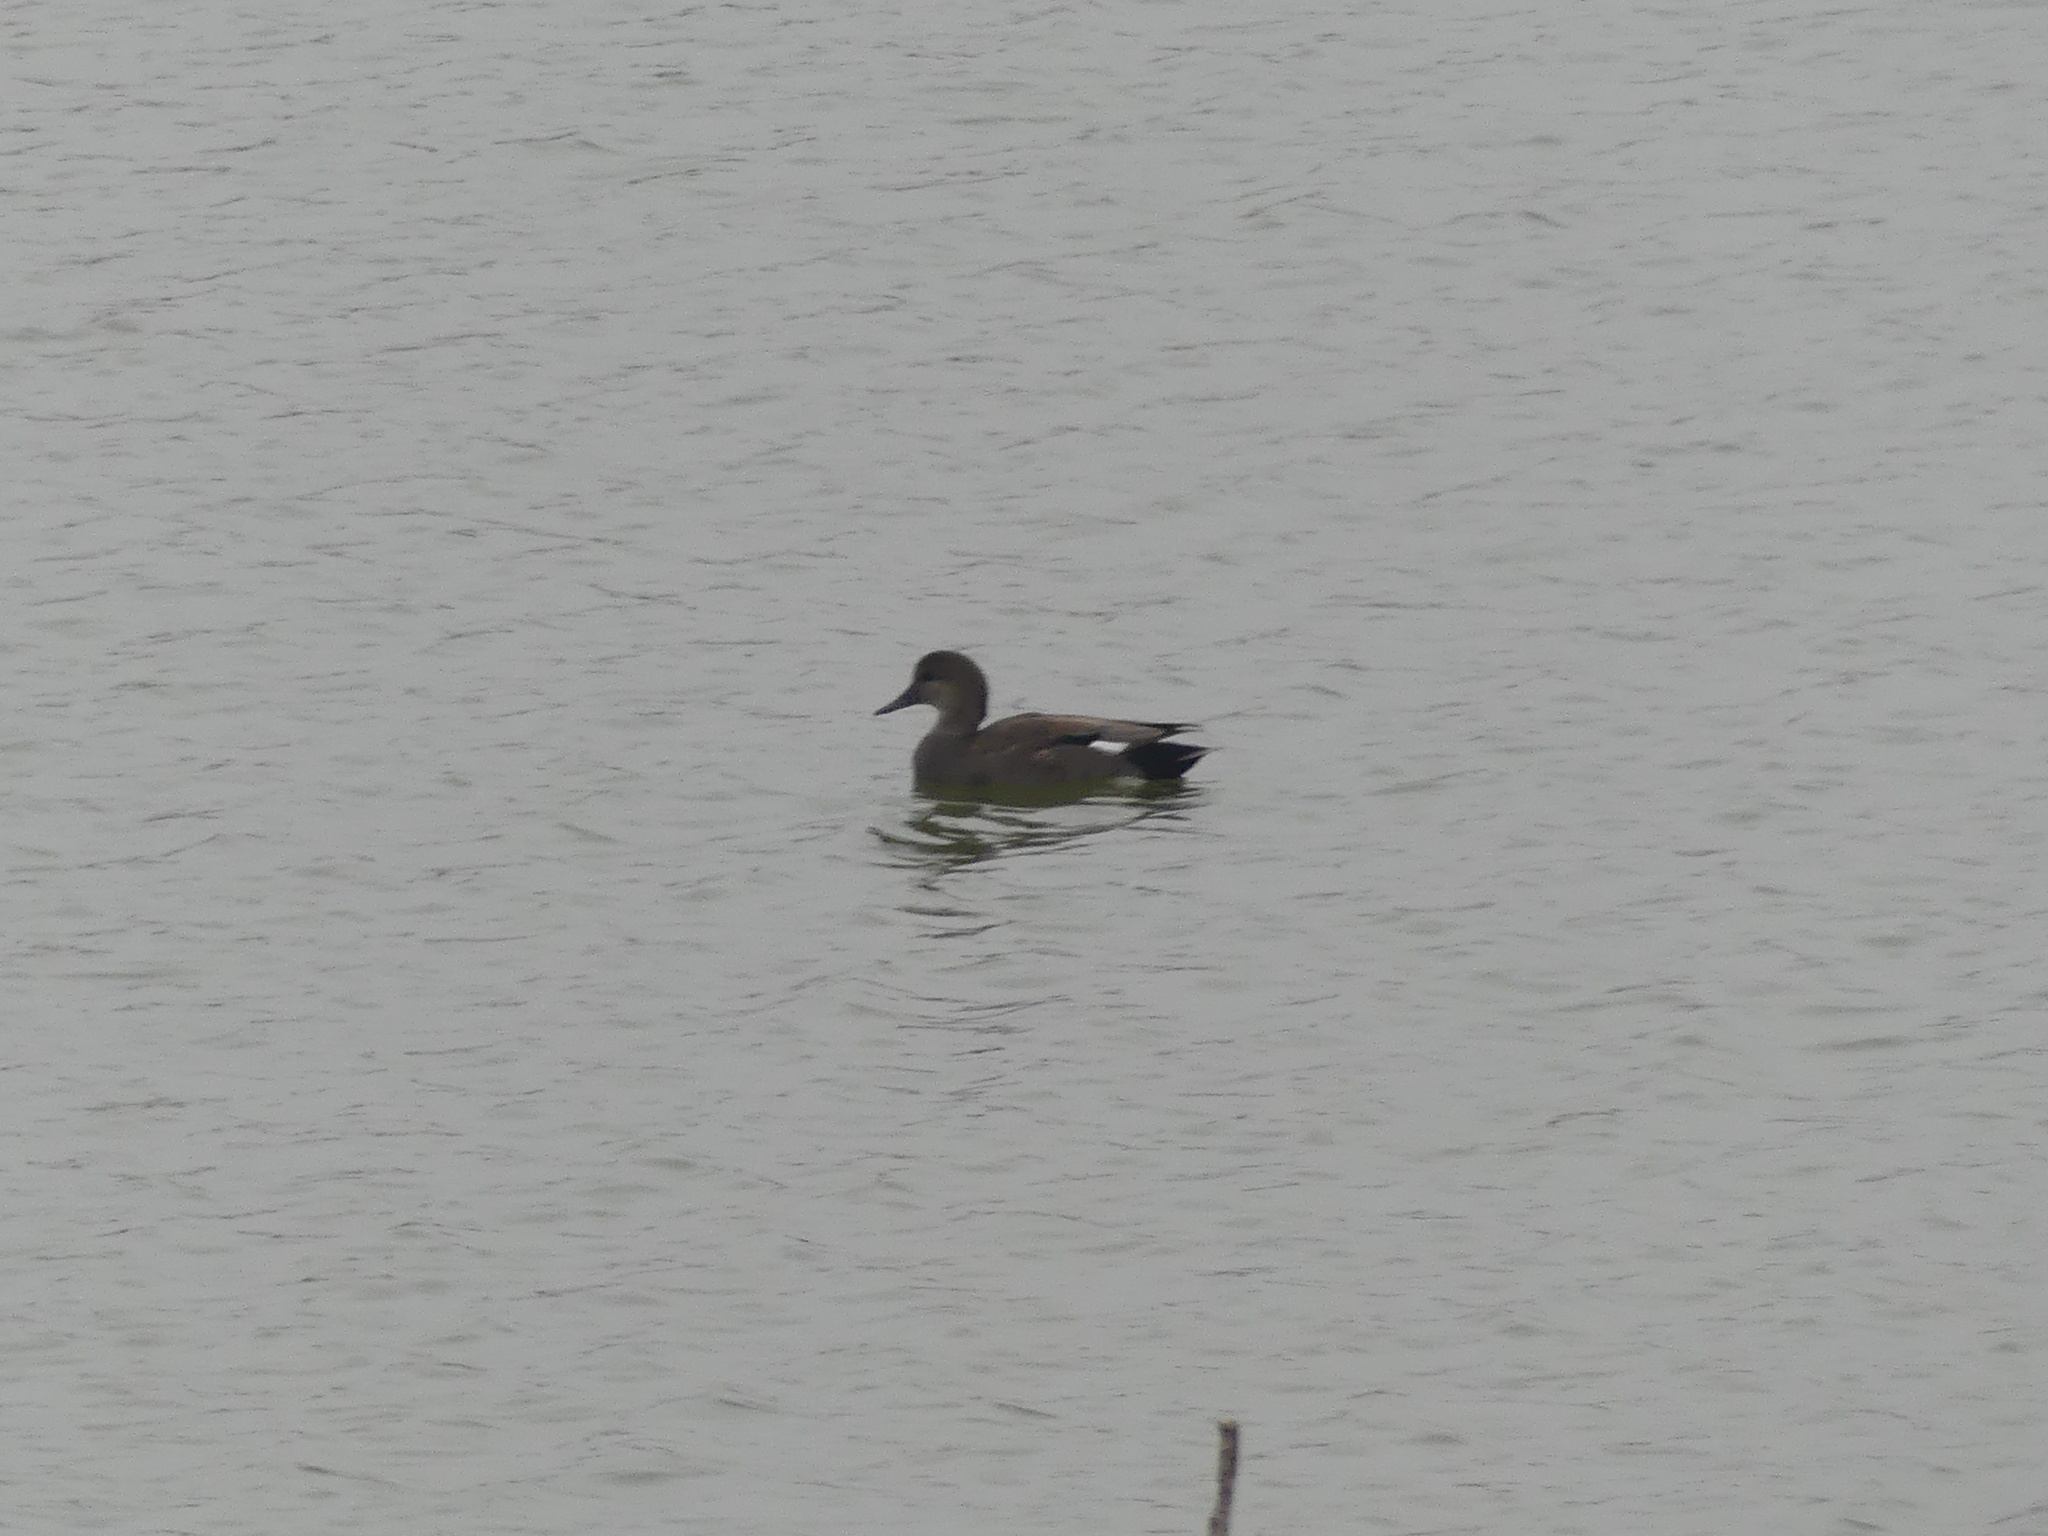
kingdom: Animalia
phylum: Chordata
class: Aves
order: Anseriformes
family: Anatidae
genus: Mareca
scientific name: Mareca strepera
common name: Gadwall
